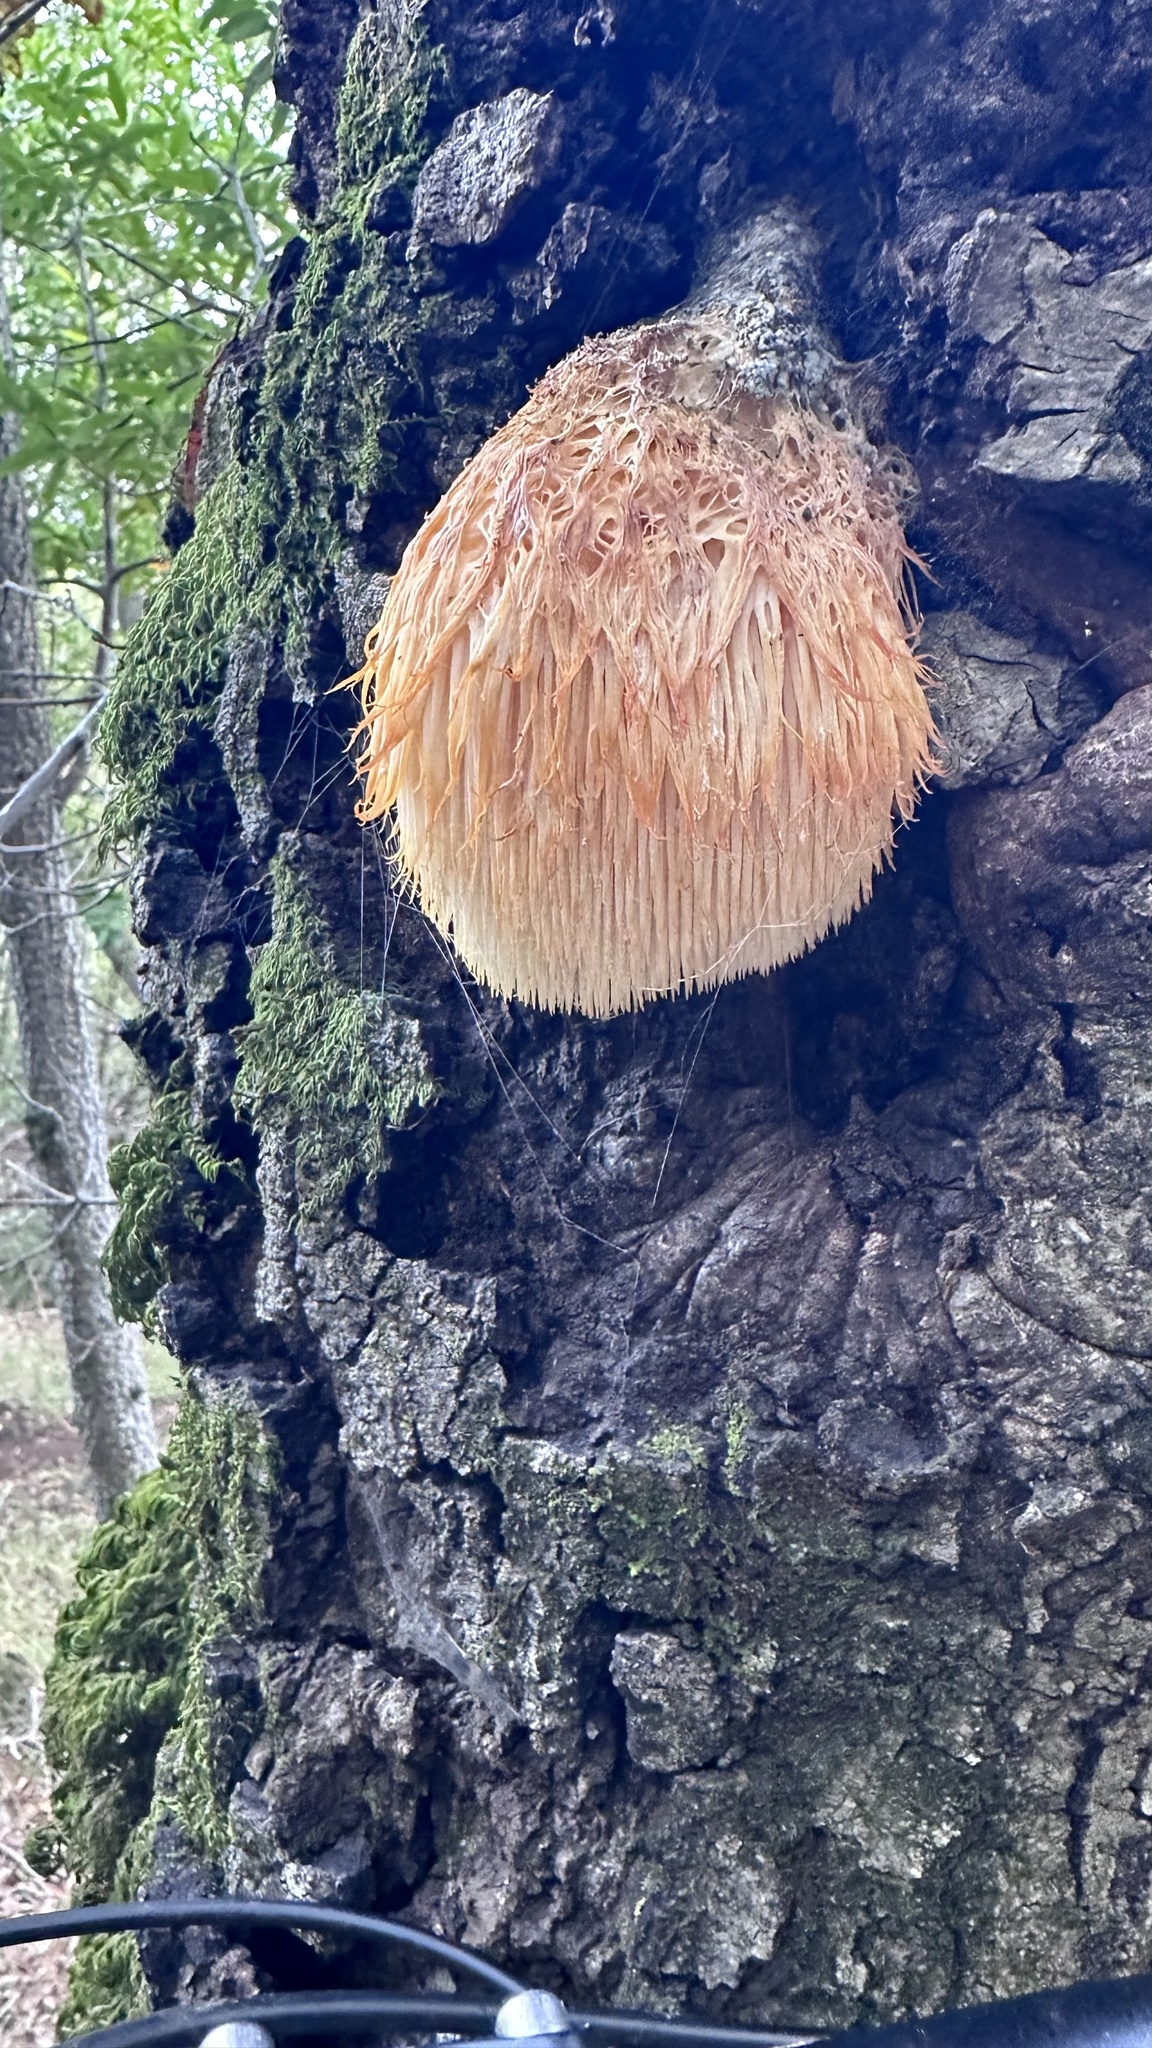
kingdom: Fungi
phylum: Basidiomycota
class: Agaricomycetes
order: Russulales
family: Hericiaceae
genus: Hericium
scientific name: Hericium erinaceus
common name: Bearded tooth
